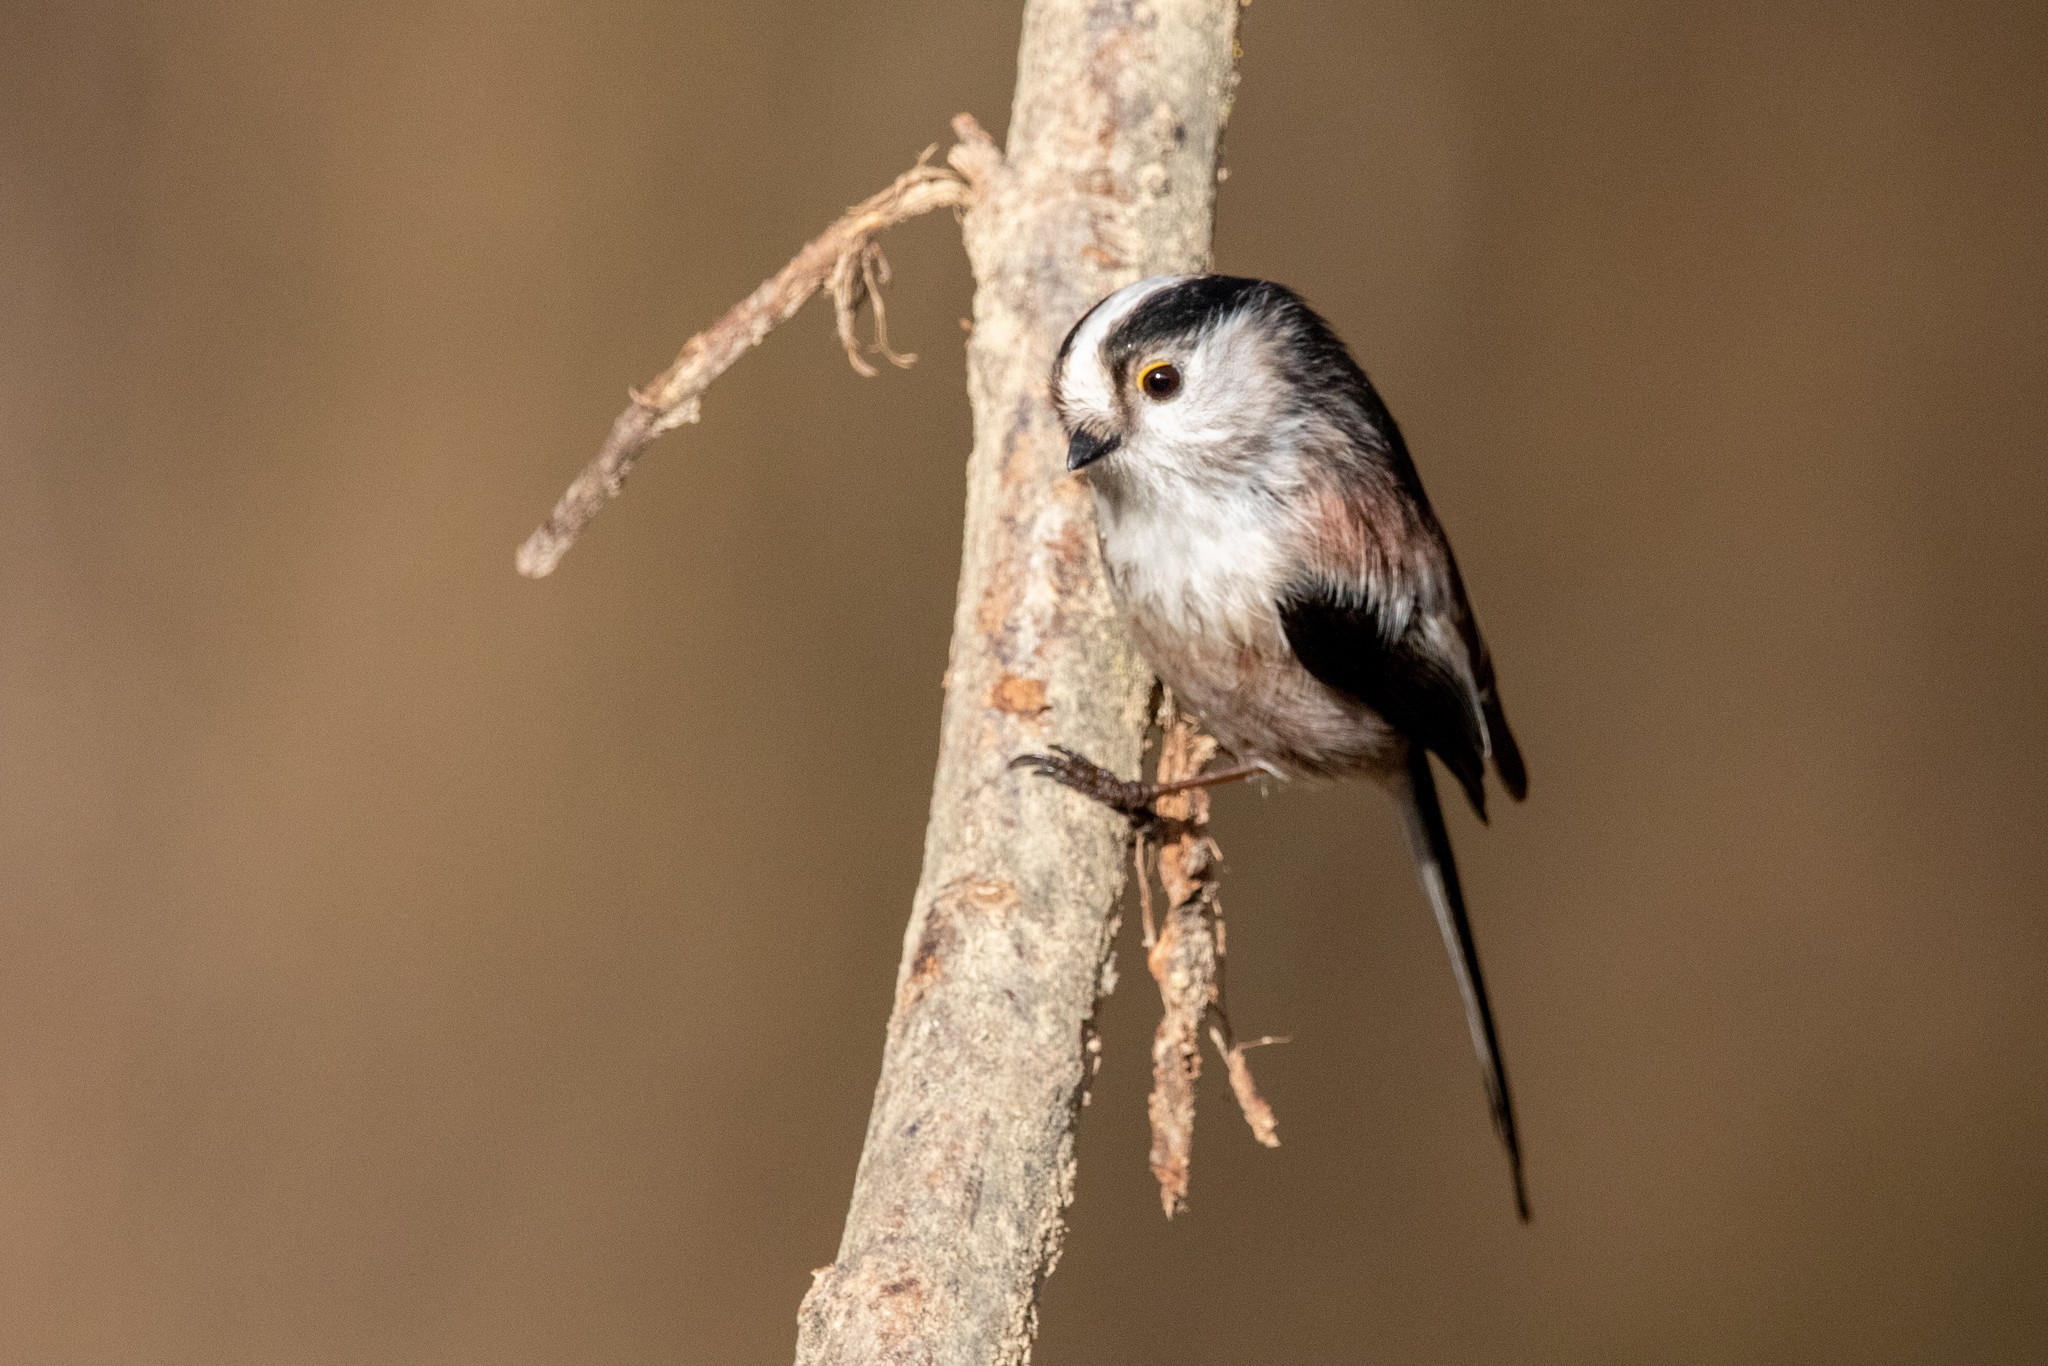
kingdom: Animalia
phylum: Chordata
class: Aves
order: Passeriformes
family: Aegithalidae
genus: Aegithalos
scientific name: Aegithalos caudatus
